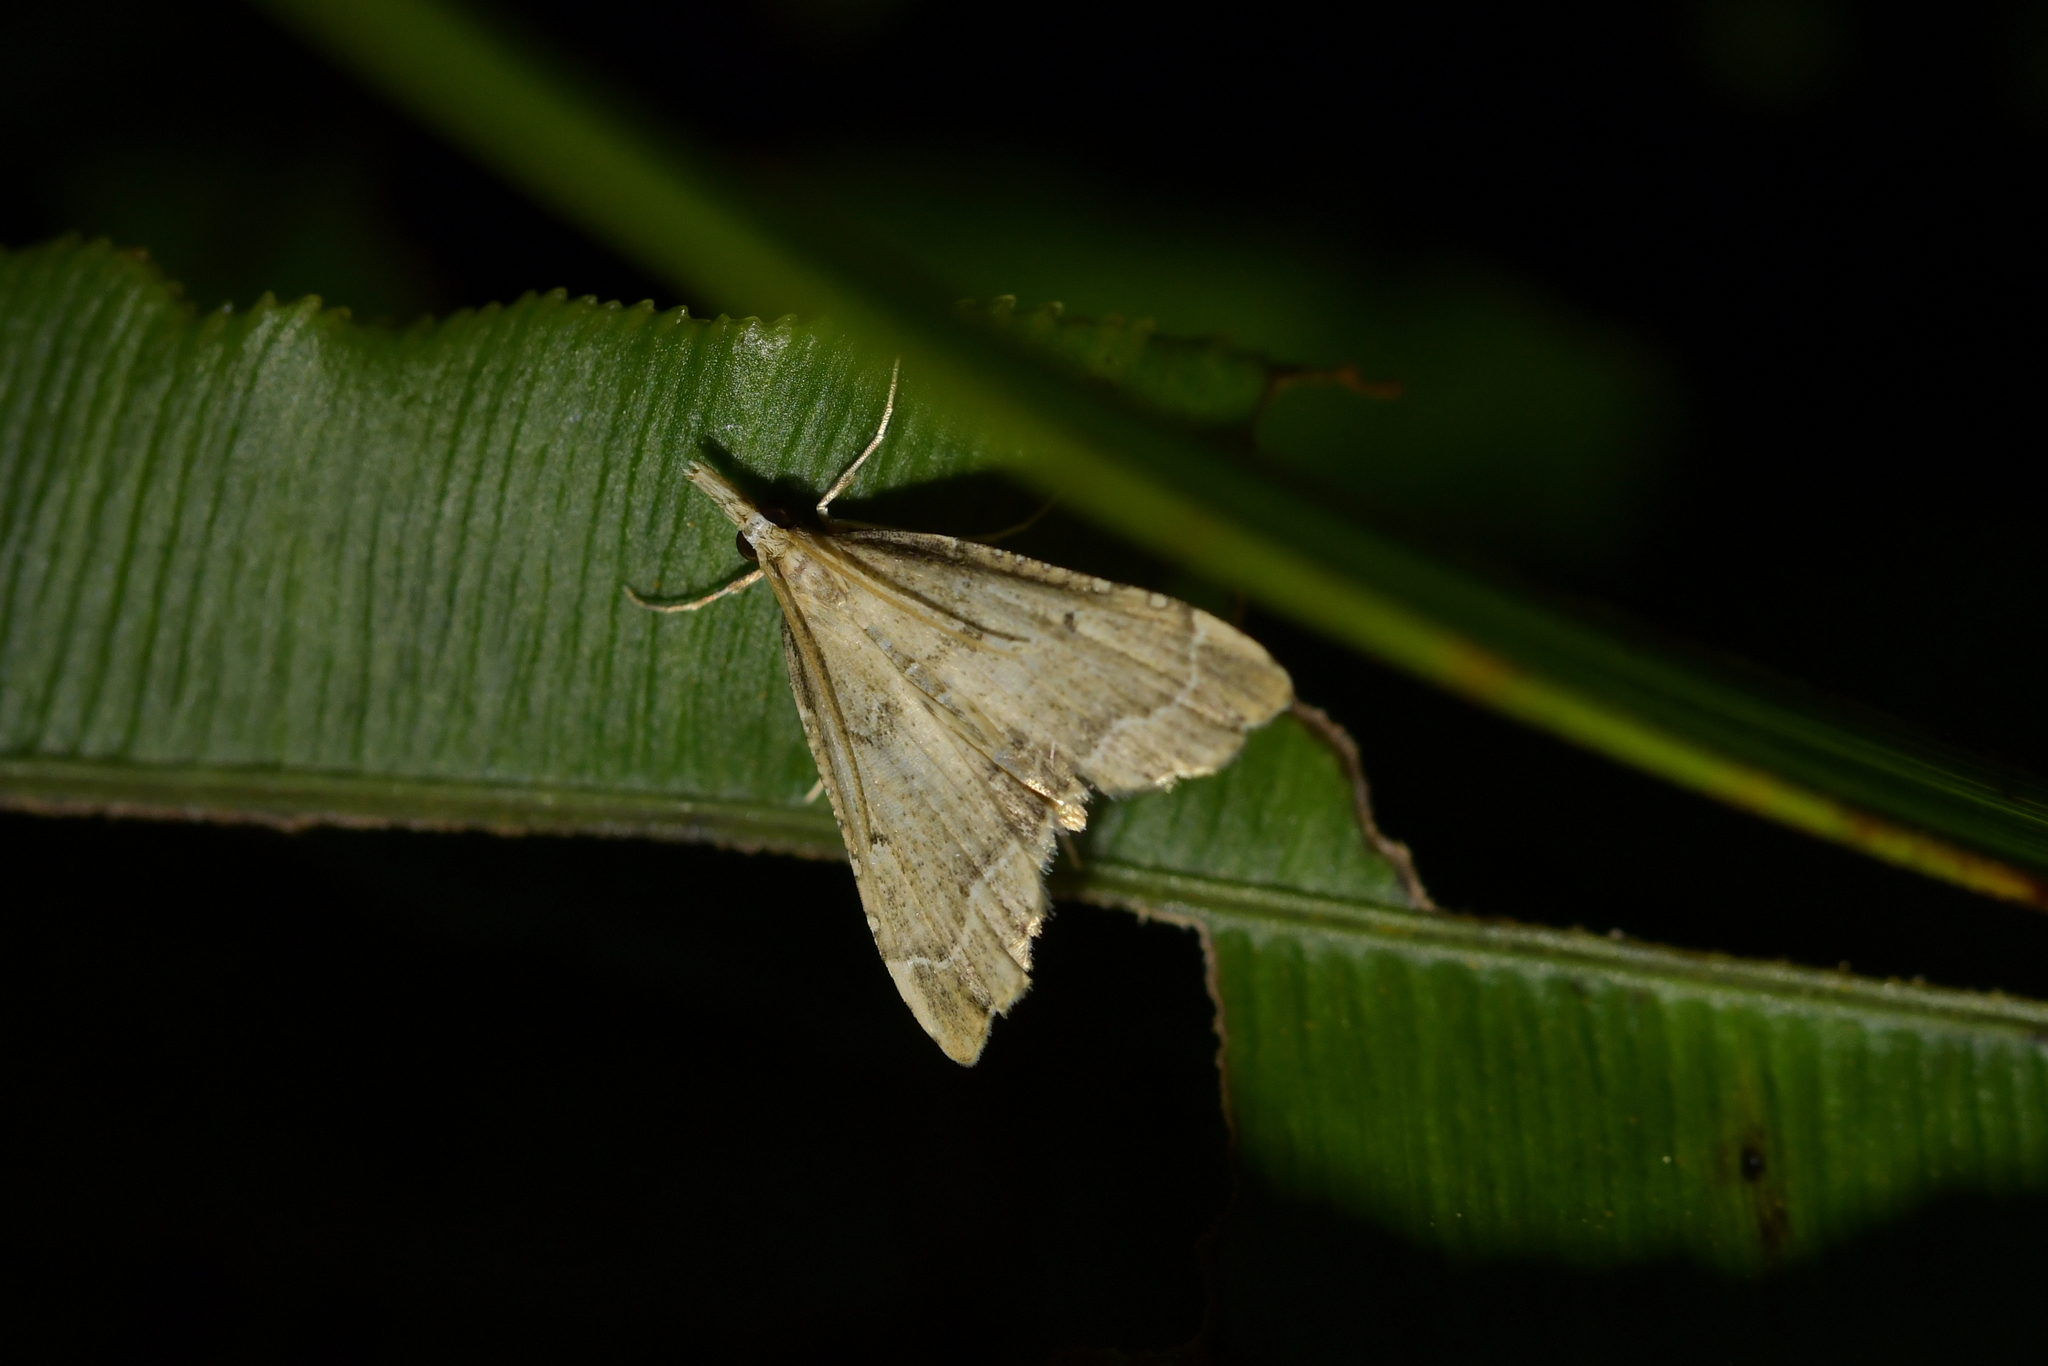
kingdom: Animalia
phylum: Arthropoda
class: Insecta
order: Lepidoptera
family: Crambidae
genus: Diplopseustis
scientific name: Diplopseustis perieresalis
